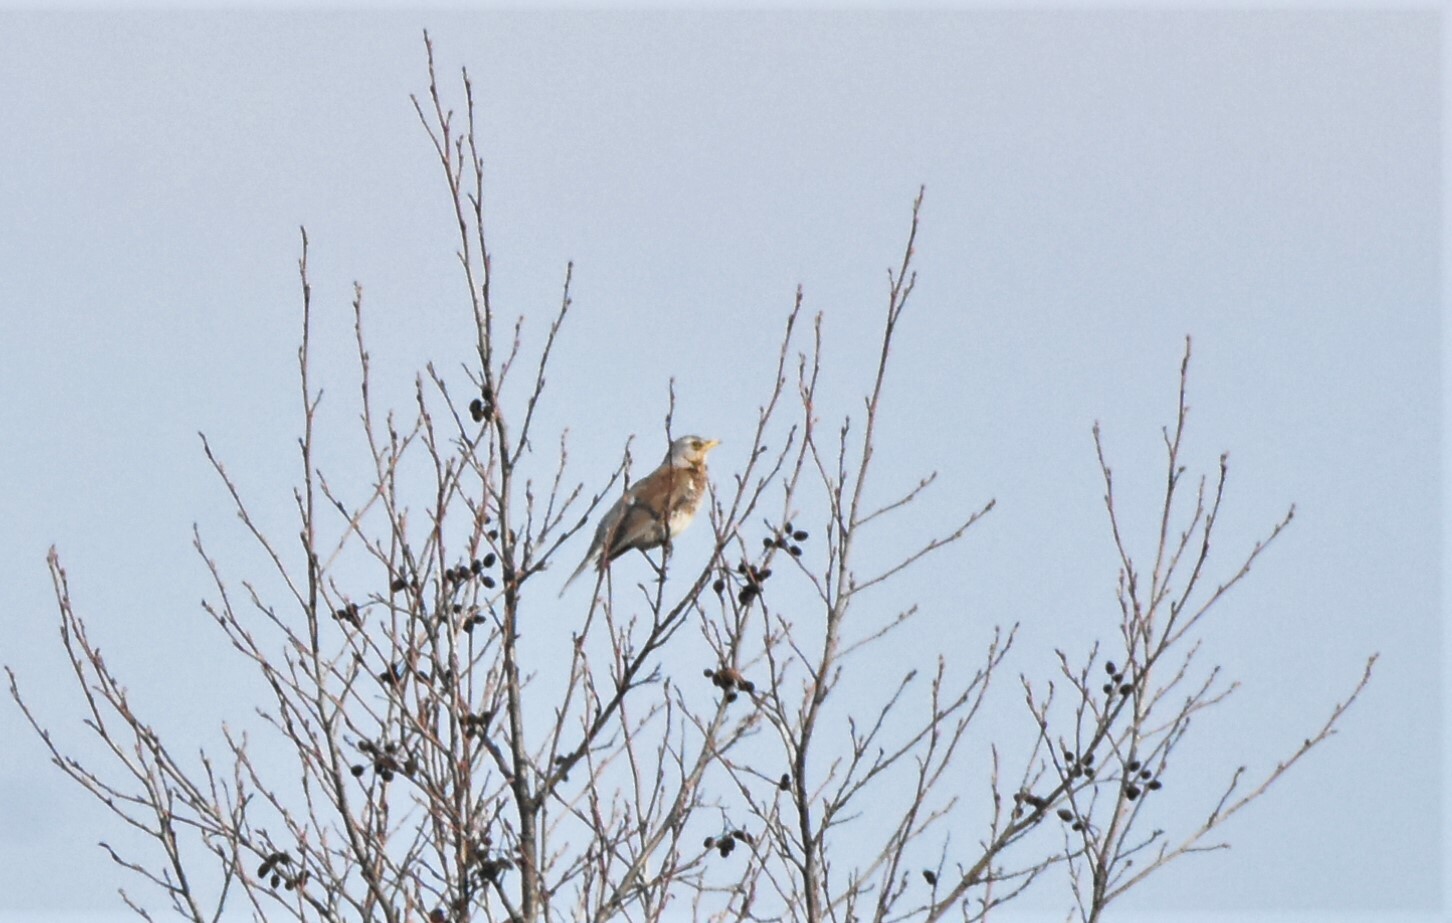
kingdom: Animalia
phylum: Chordata
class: Aves
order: Passeriformes
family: Turdidae
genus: Turdus
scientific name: Turdus pilaris
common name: Fieldfare
